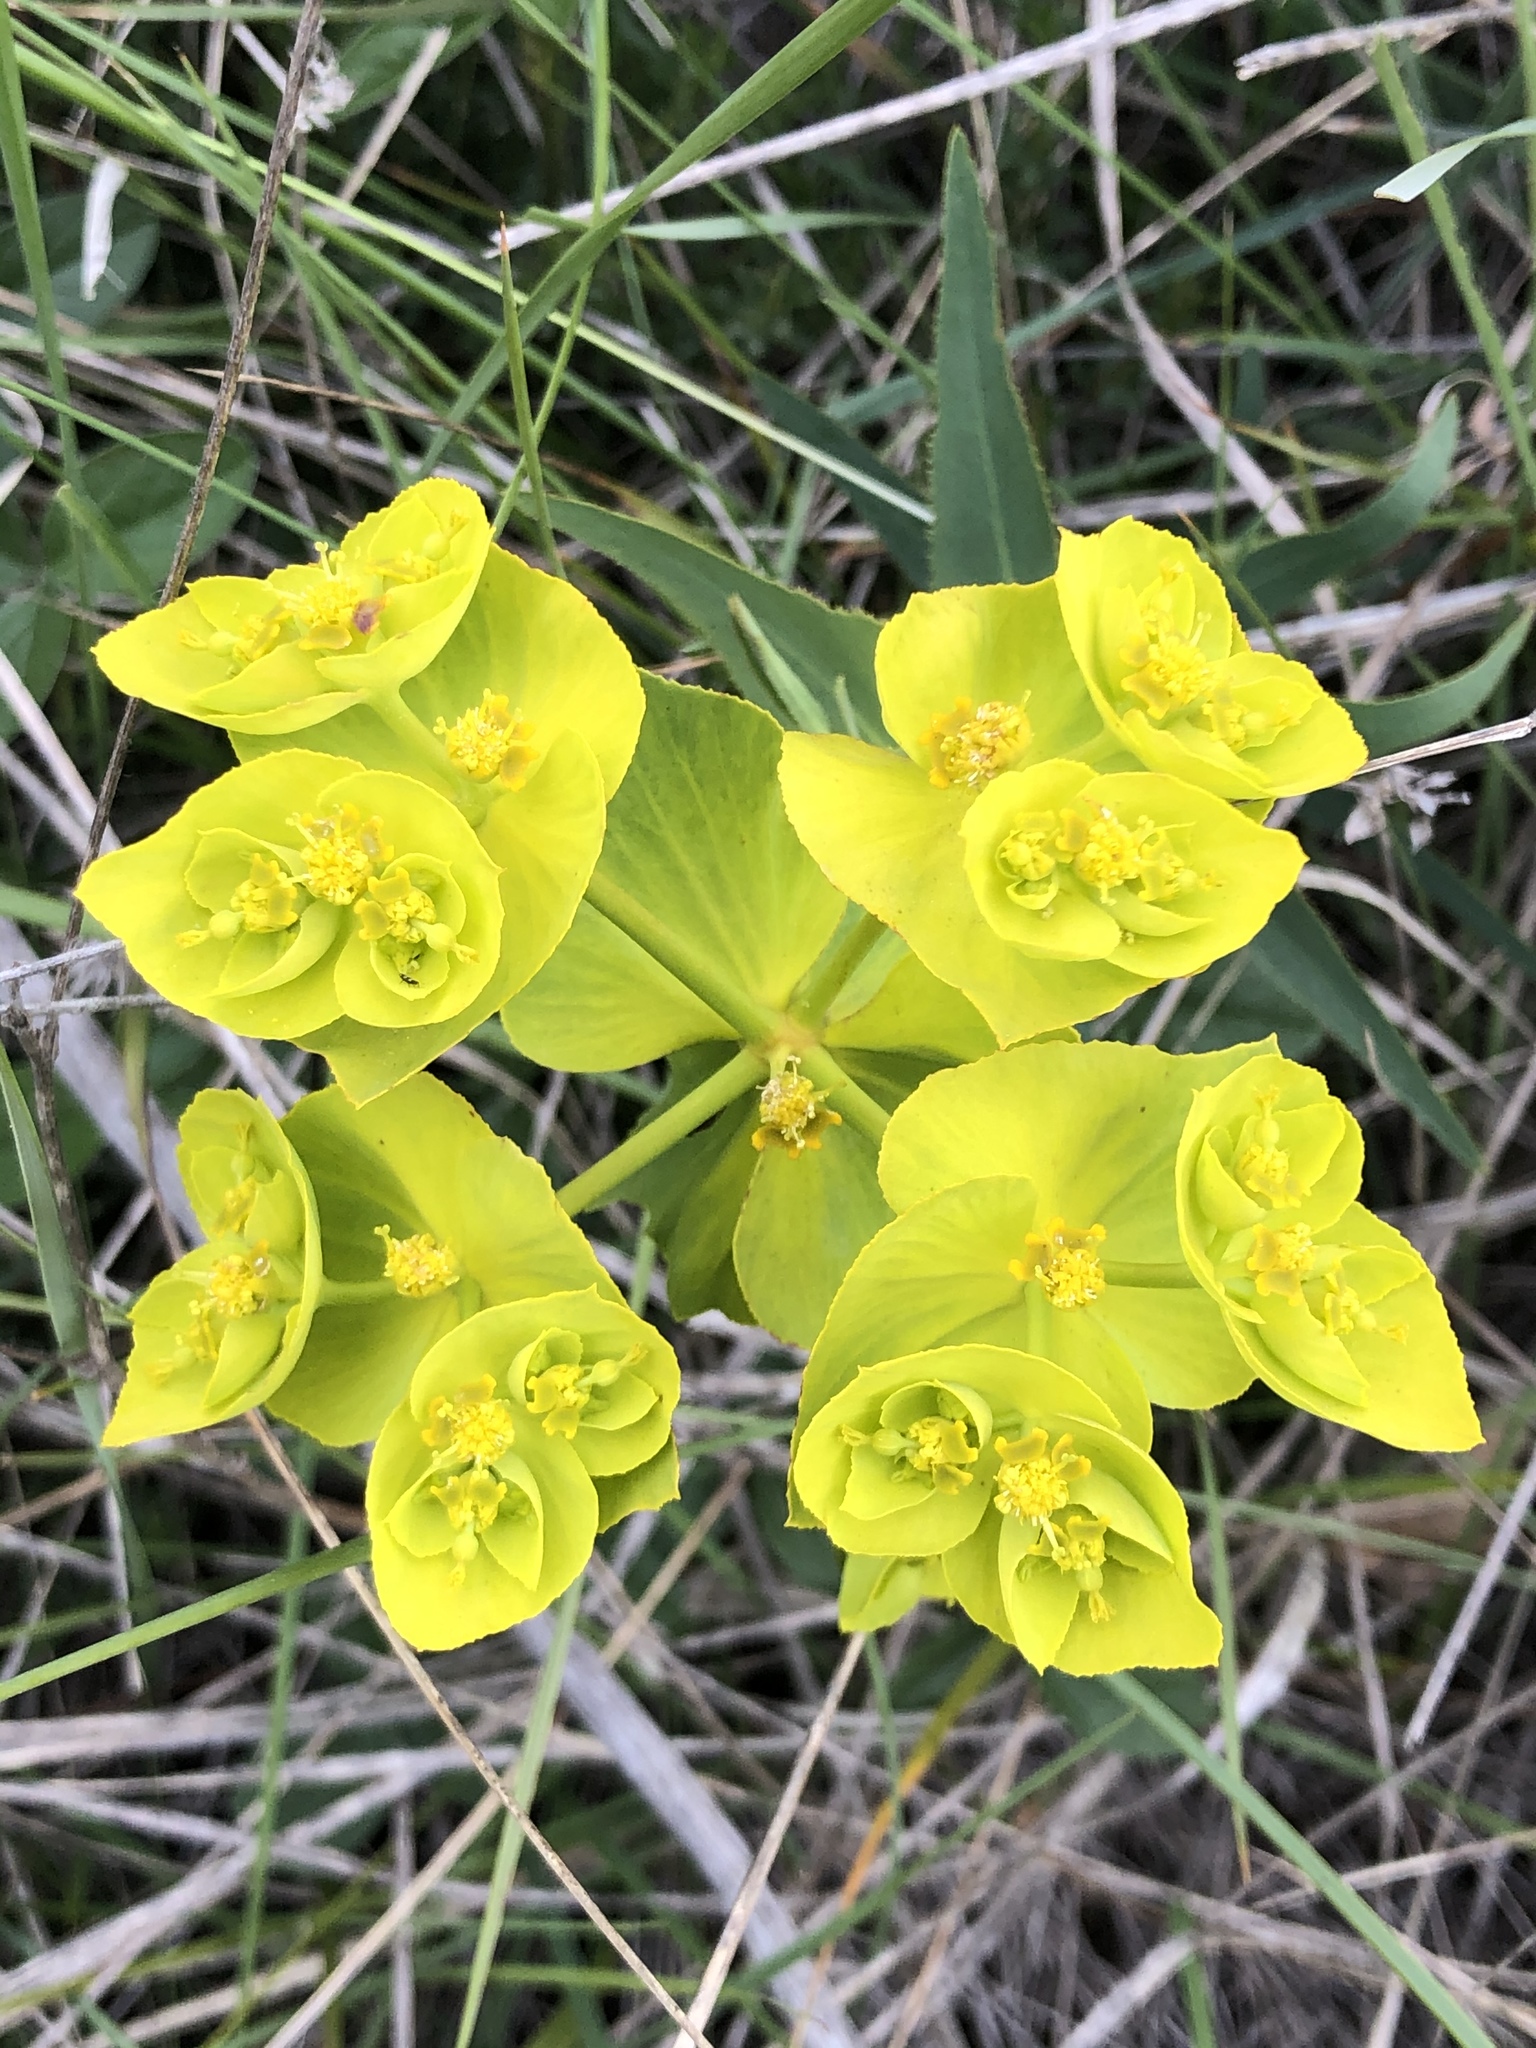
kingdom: Plantae
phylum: Tracheophyta
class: Magnoliopsida
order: Malpighiales
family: Euphorbiaceae
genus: Euphorbia
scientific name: Euphorbia serrata
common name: Serrate spurge
